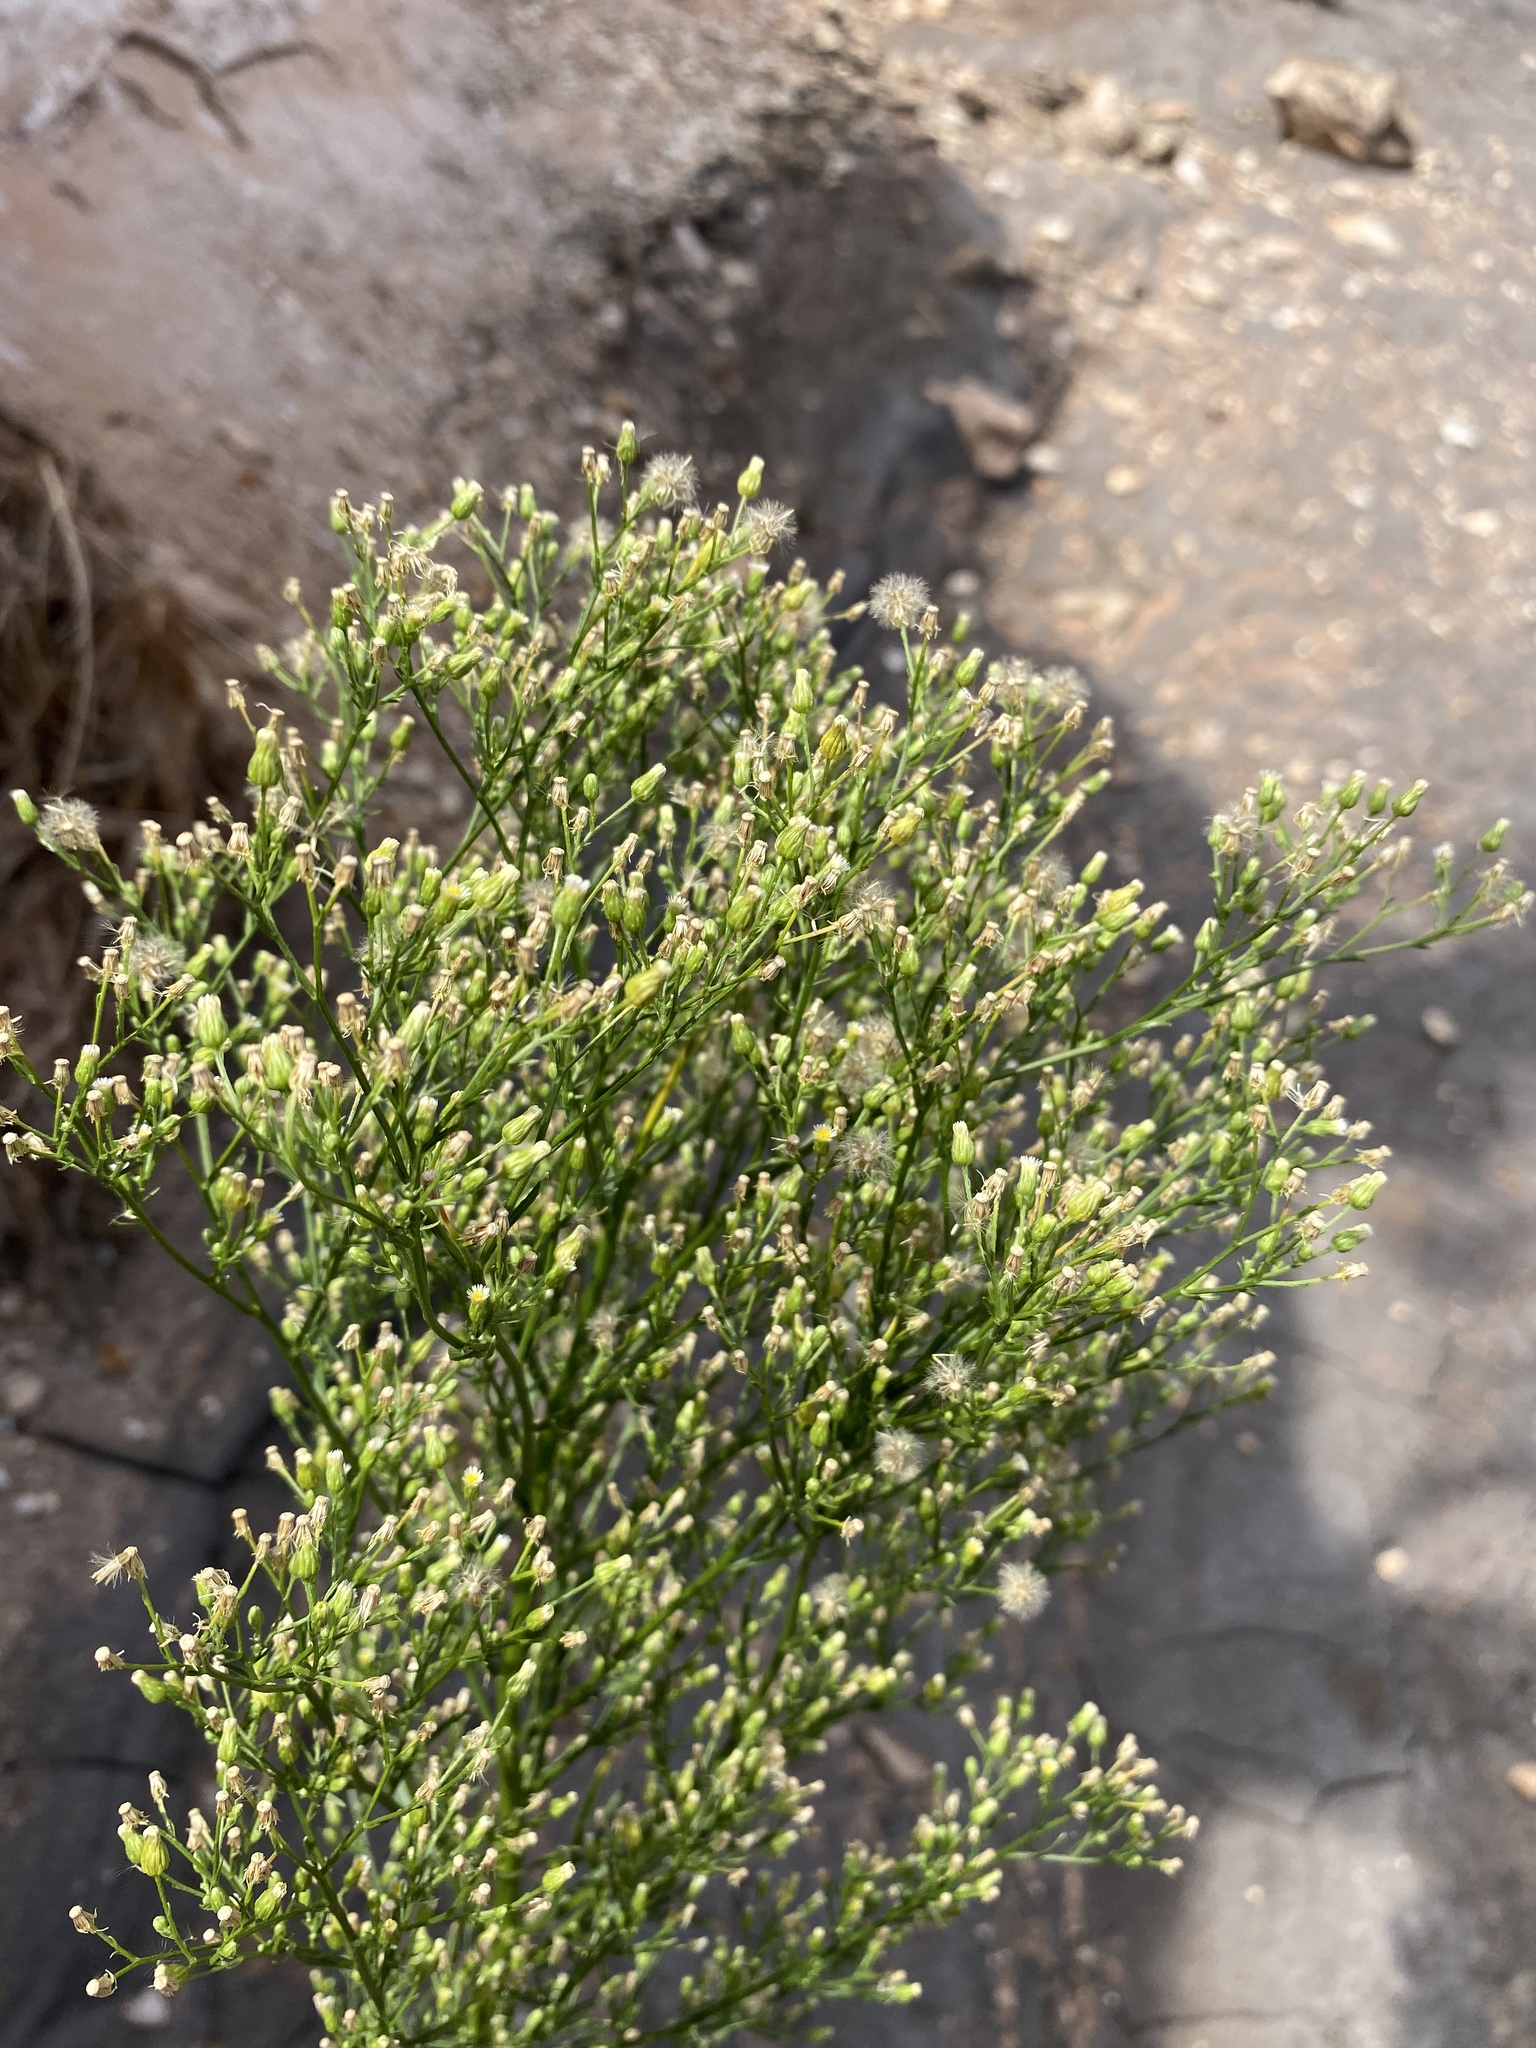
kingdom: Plantae
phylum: Tracheophyta
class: Magnoliopsida
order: Asterales
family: Asteraceae
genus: Erigeron
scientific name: Erigeron canadensis
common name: Canadian fleabane
